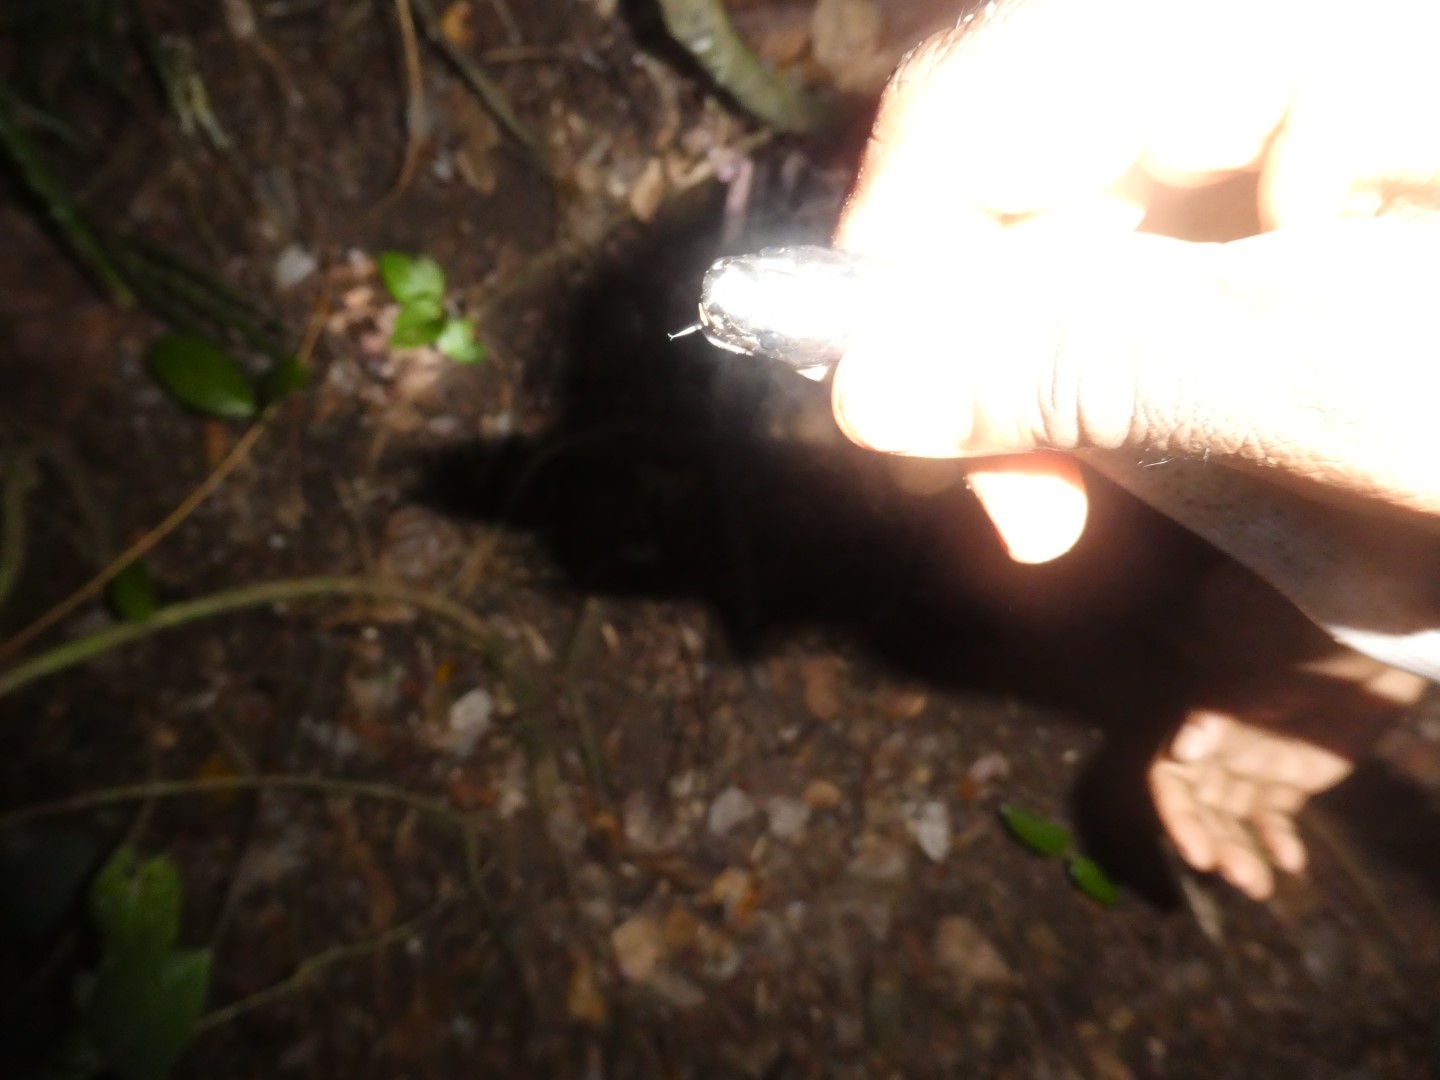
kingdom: Animalia
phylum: Chordata
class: Squamata
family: Colubridae
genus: Stegonotus
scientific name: Stegonotus iridis
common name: Iridescent groundsnake
